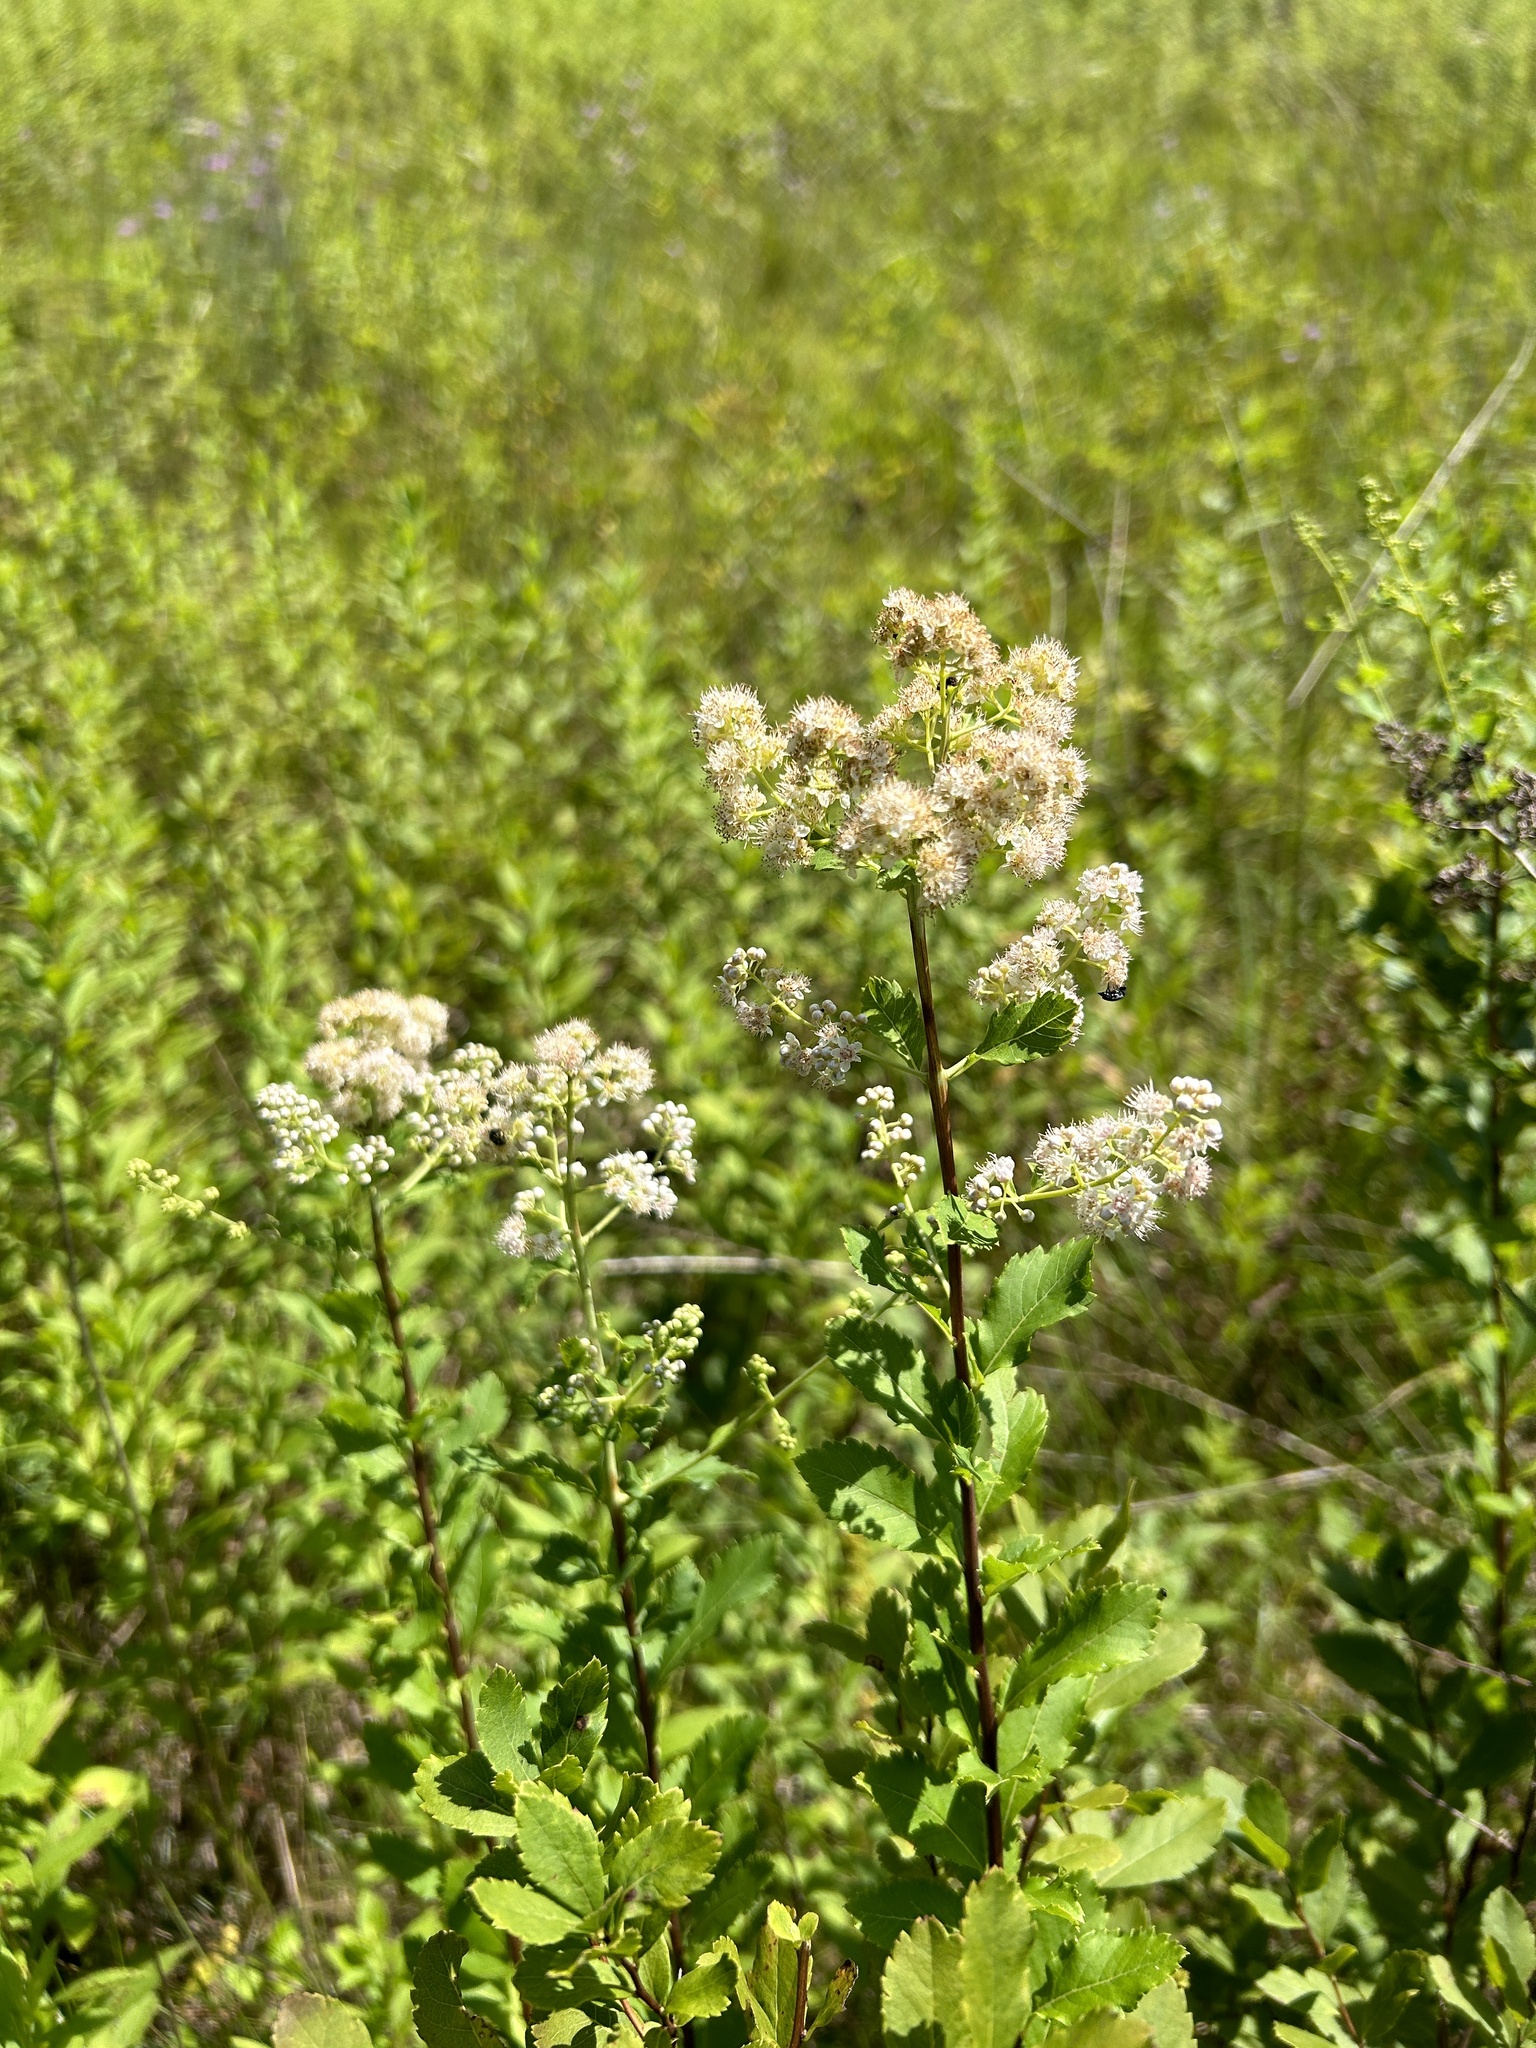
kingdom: Plantae
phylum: Tracheophyta
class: Magnoliopsida
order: Rosales
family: Rosaceae
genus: Spiraea
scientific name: Spiraea alba
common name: Pale bridewort
